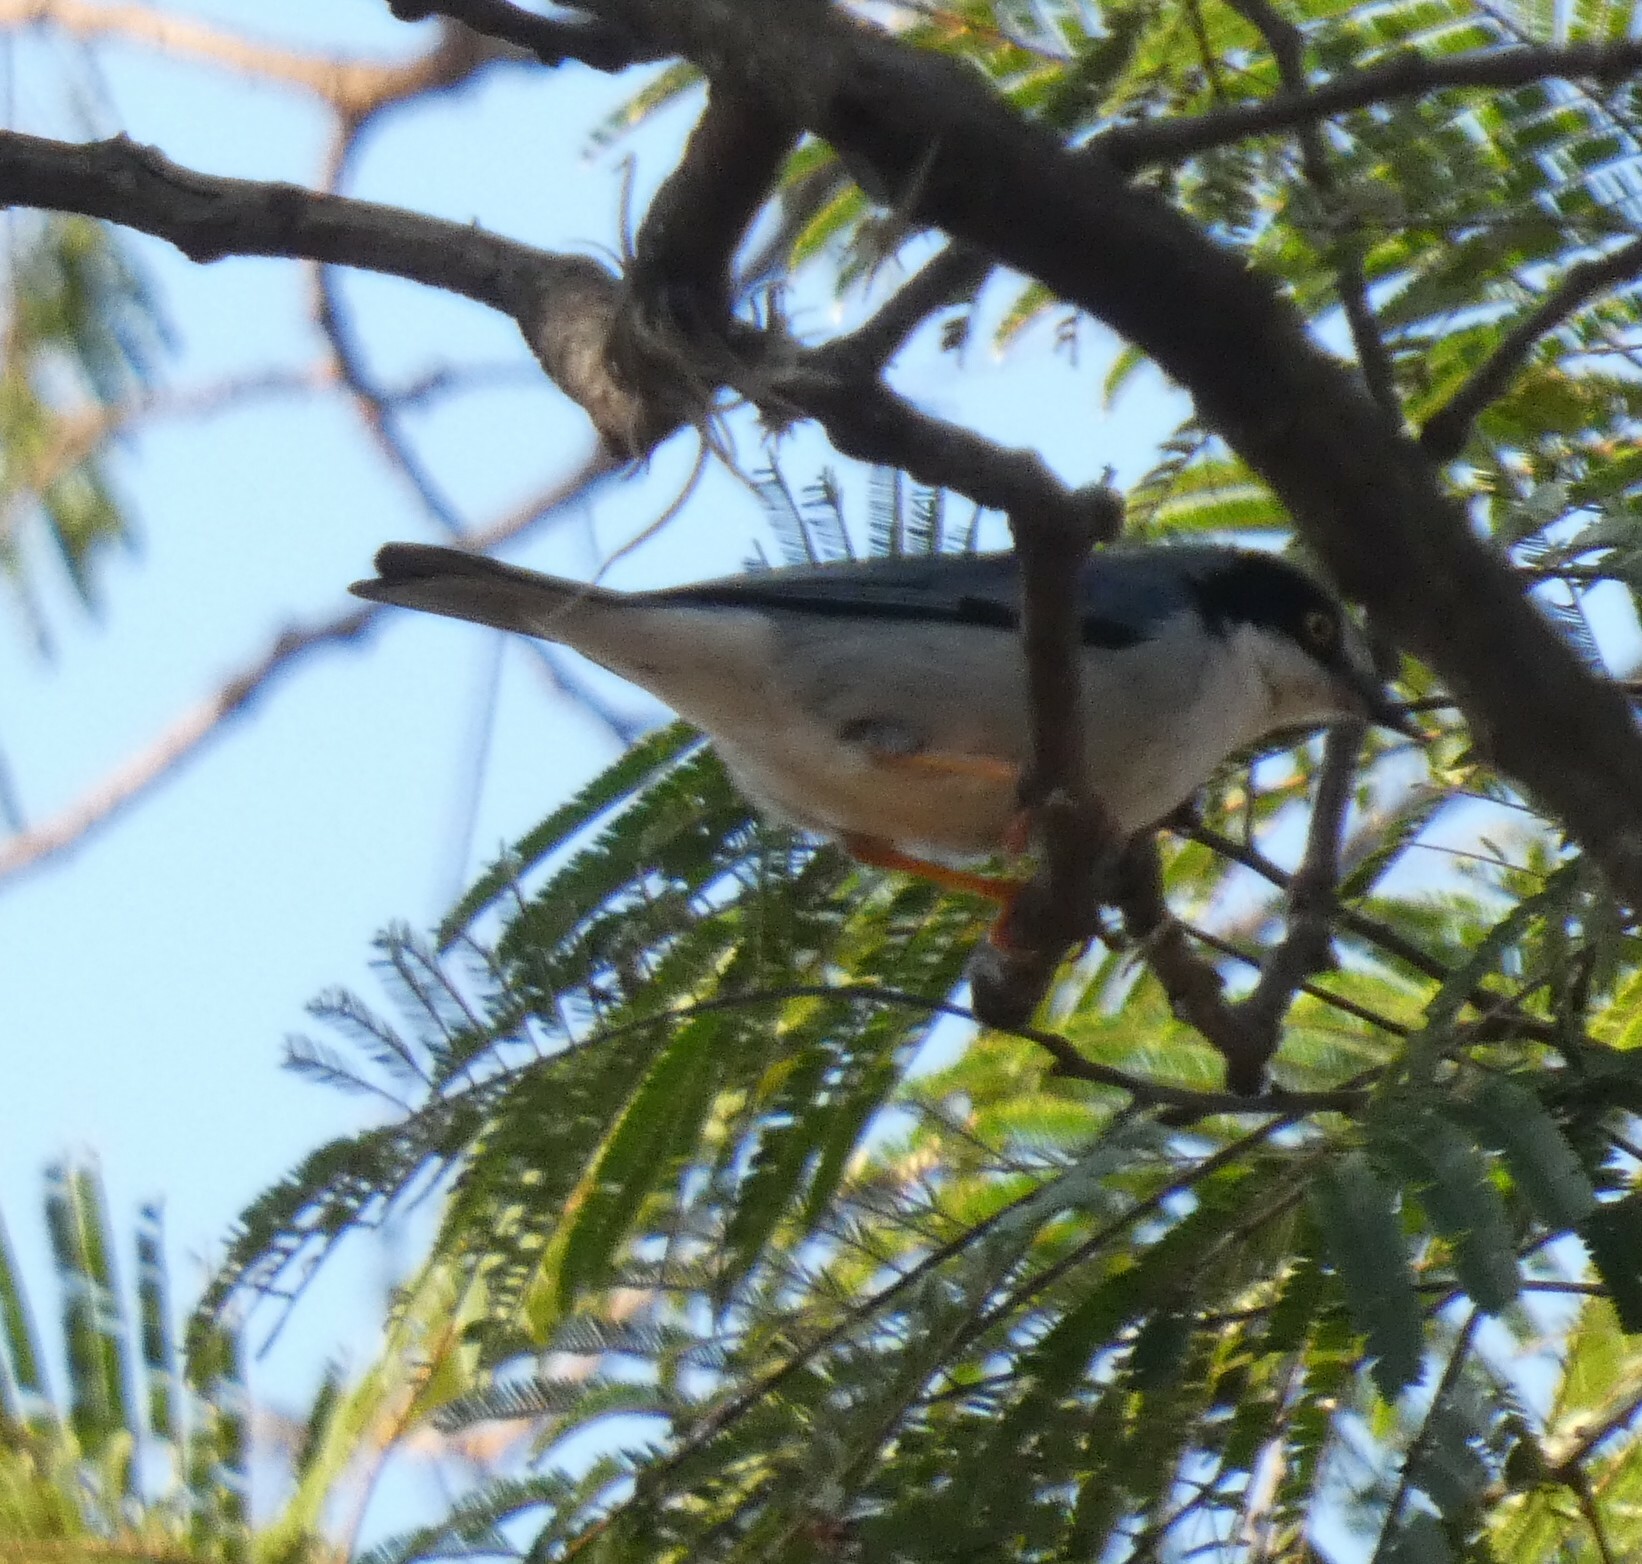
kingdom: Animalia
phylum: Chordata
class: Aves
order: Passeriformes
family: Thraupidae
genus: Nemosia
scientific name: Nemosia pileata
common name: Hooded tanager
